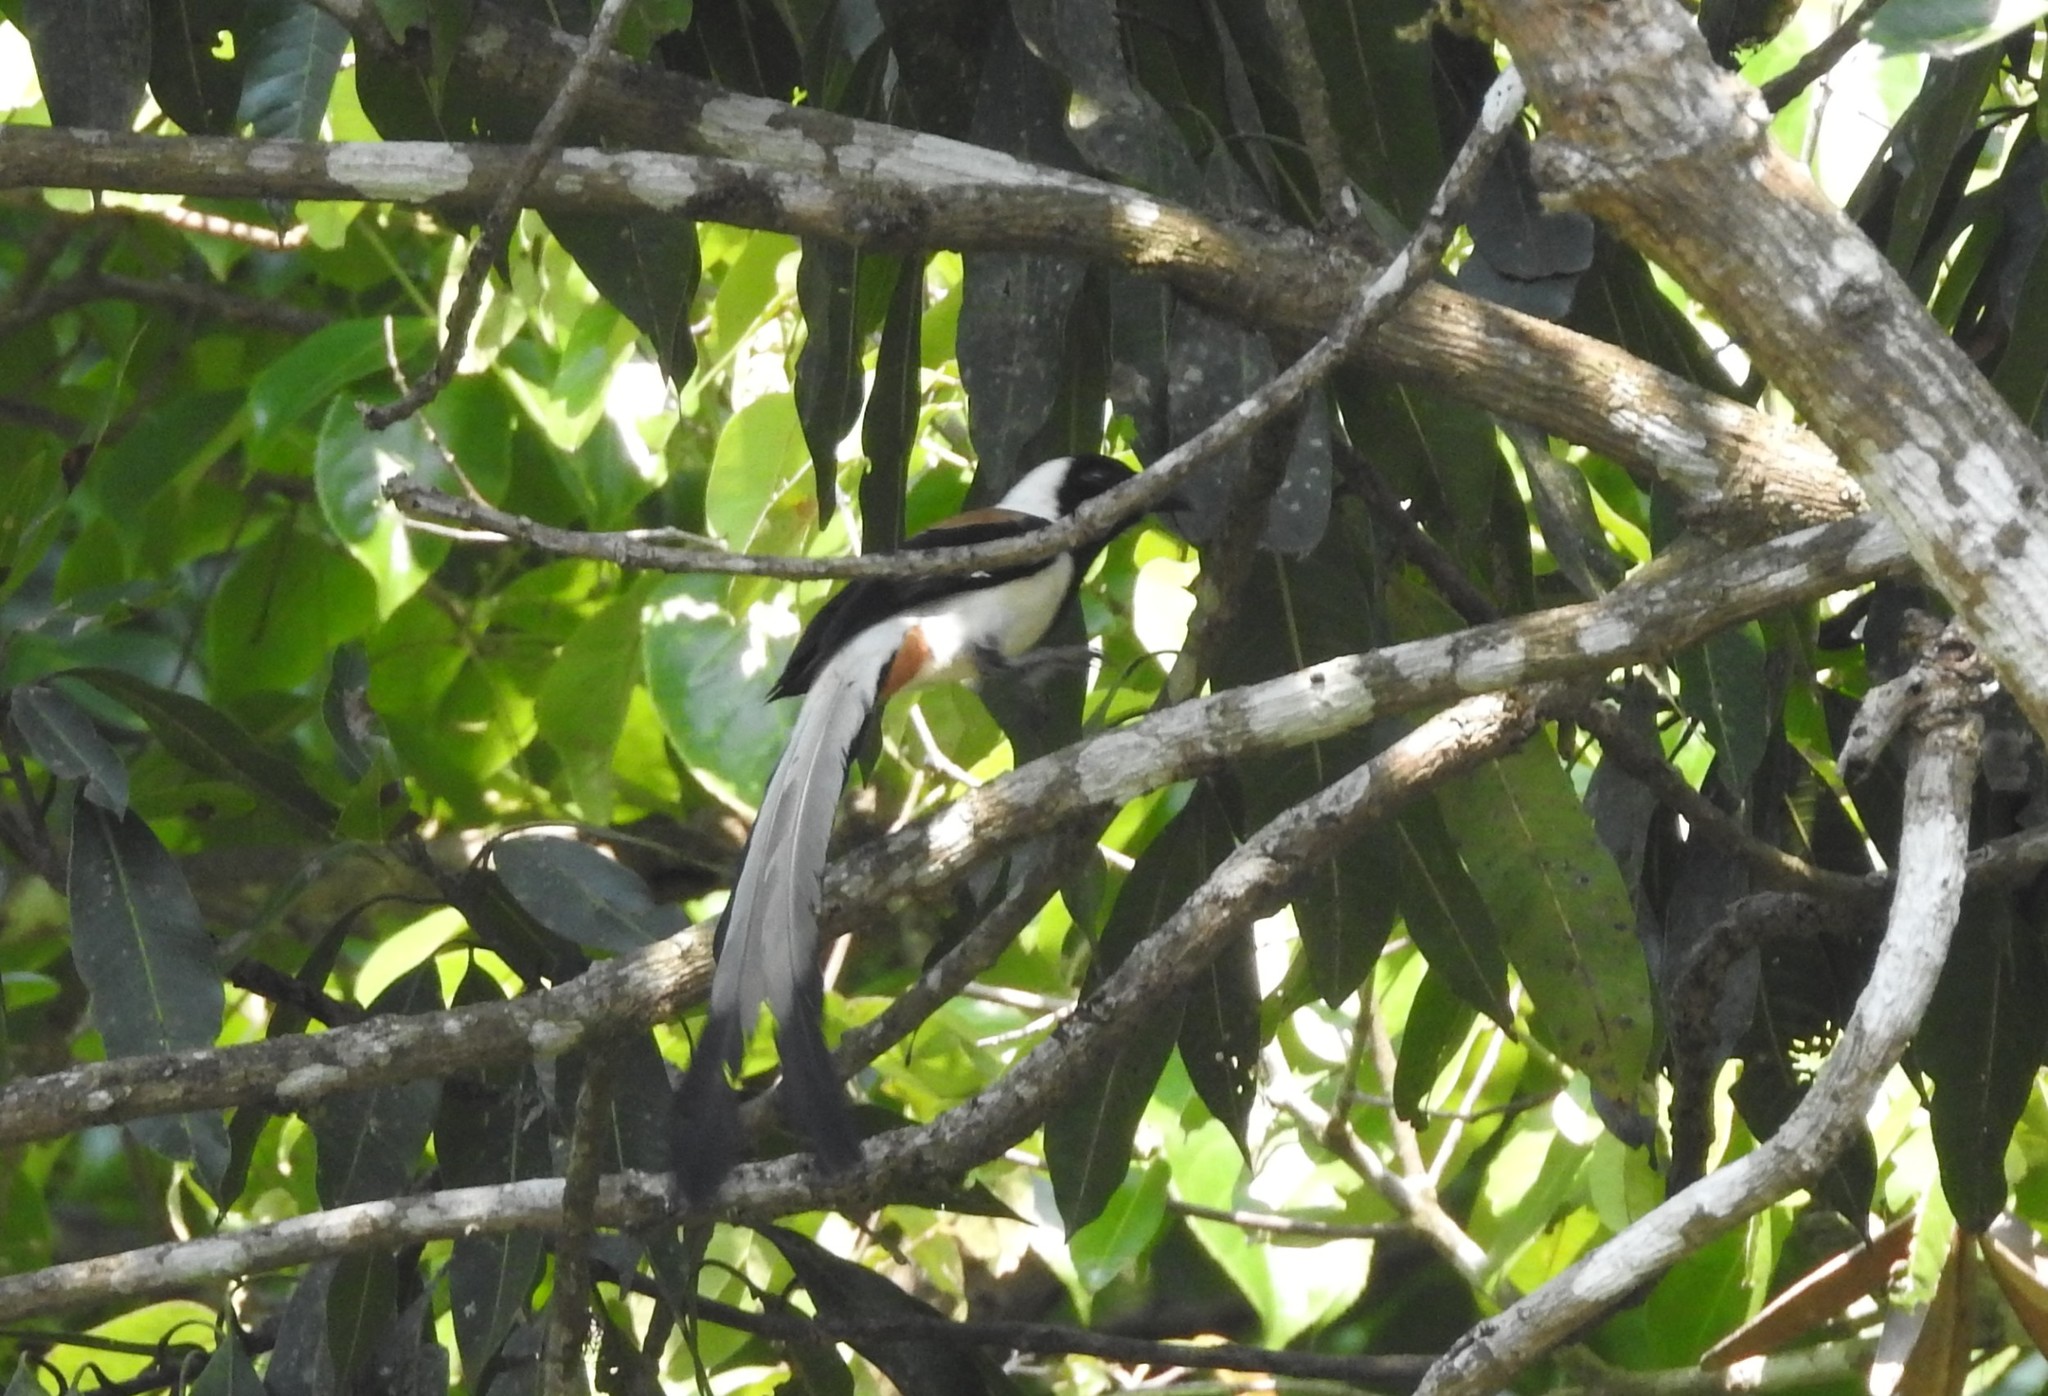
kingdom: Animalia
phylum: Chordata
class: Aves
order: Passeriformes
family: Corvidae
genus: Dendrocitta
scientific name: Dendrocitta leucogastra
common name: White-bellied treepie
